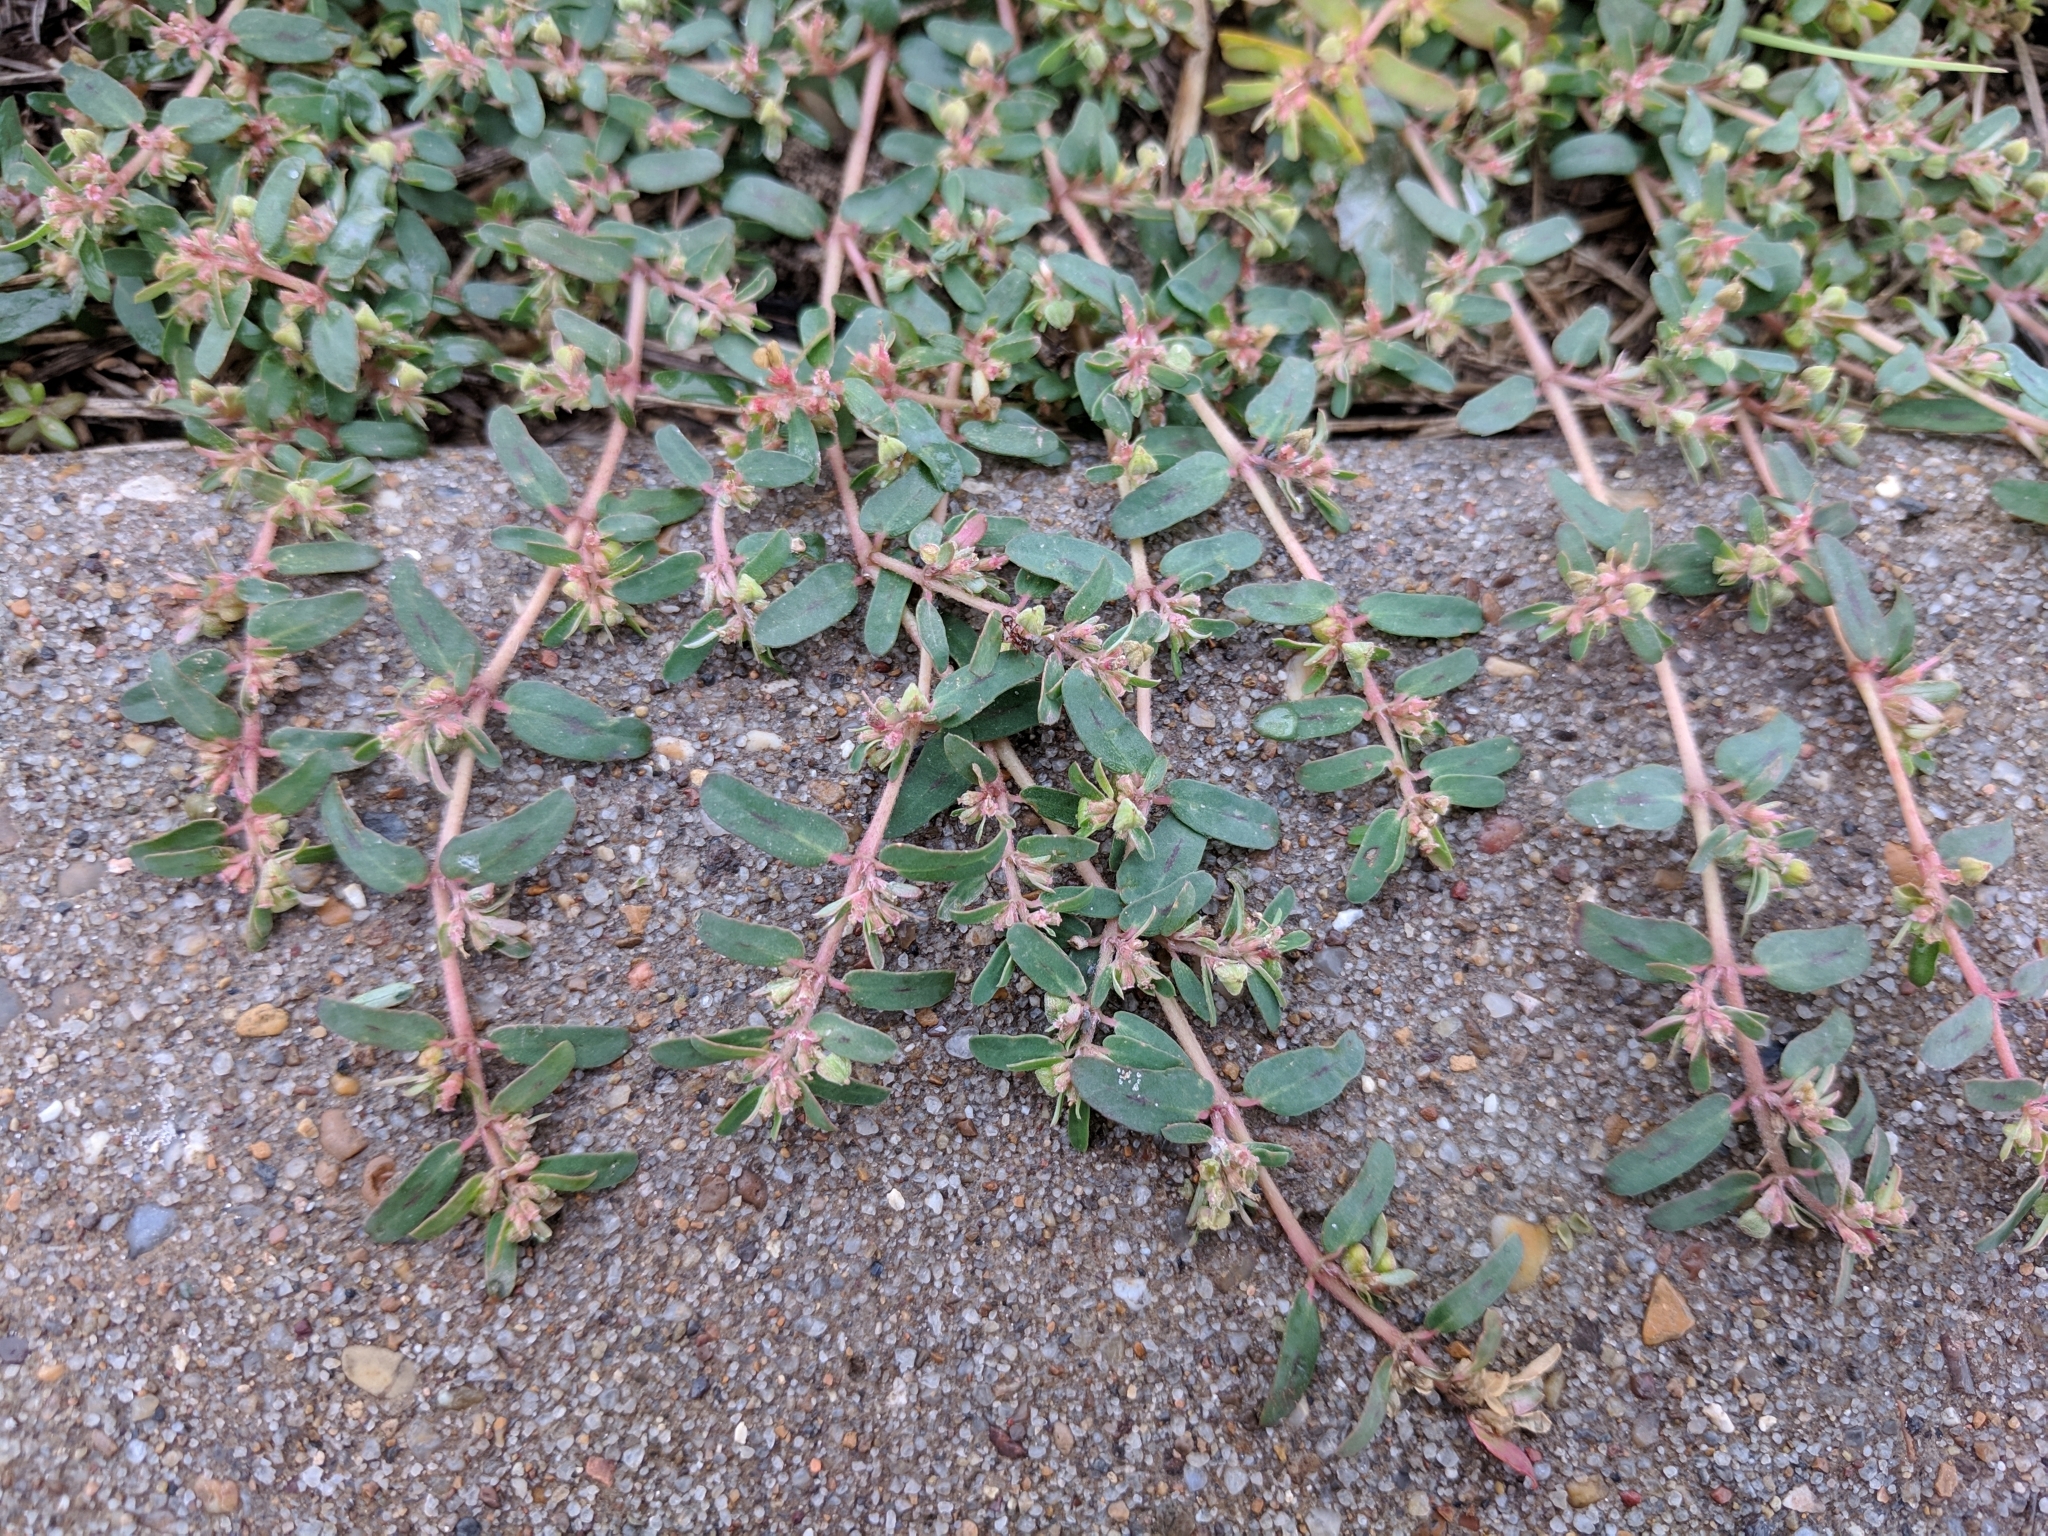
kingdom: Plantae
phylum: Tracheophyta
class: Magnoliopsida
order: Malpighiales
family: Euphorbiaceae
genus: Euphorbia
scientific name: Euphorbia maculata
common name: Spotted spurge
